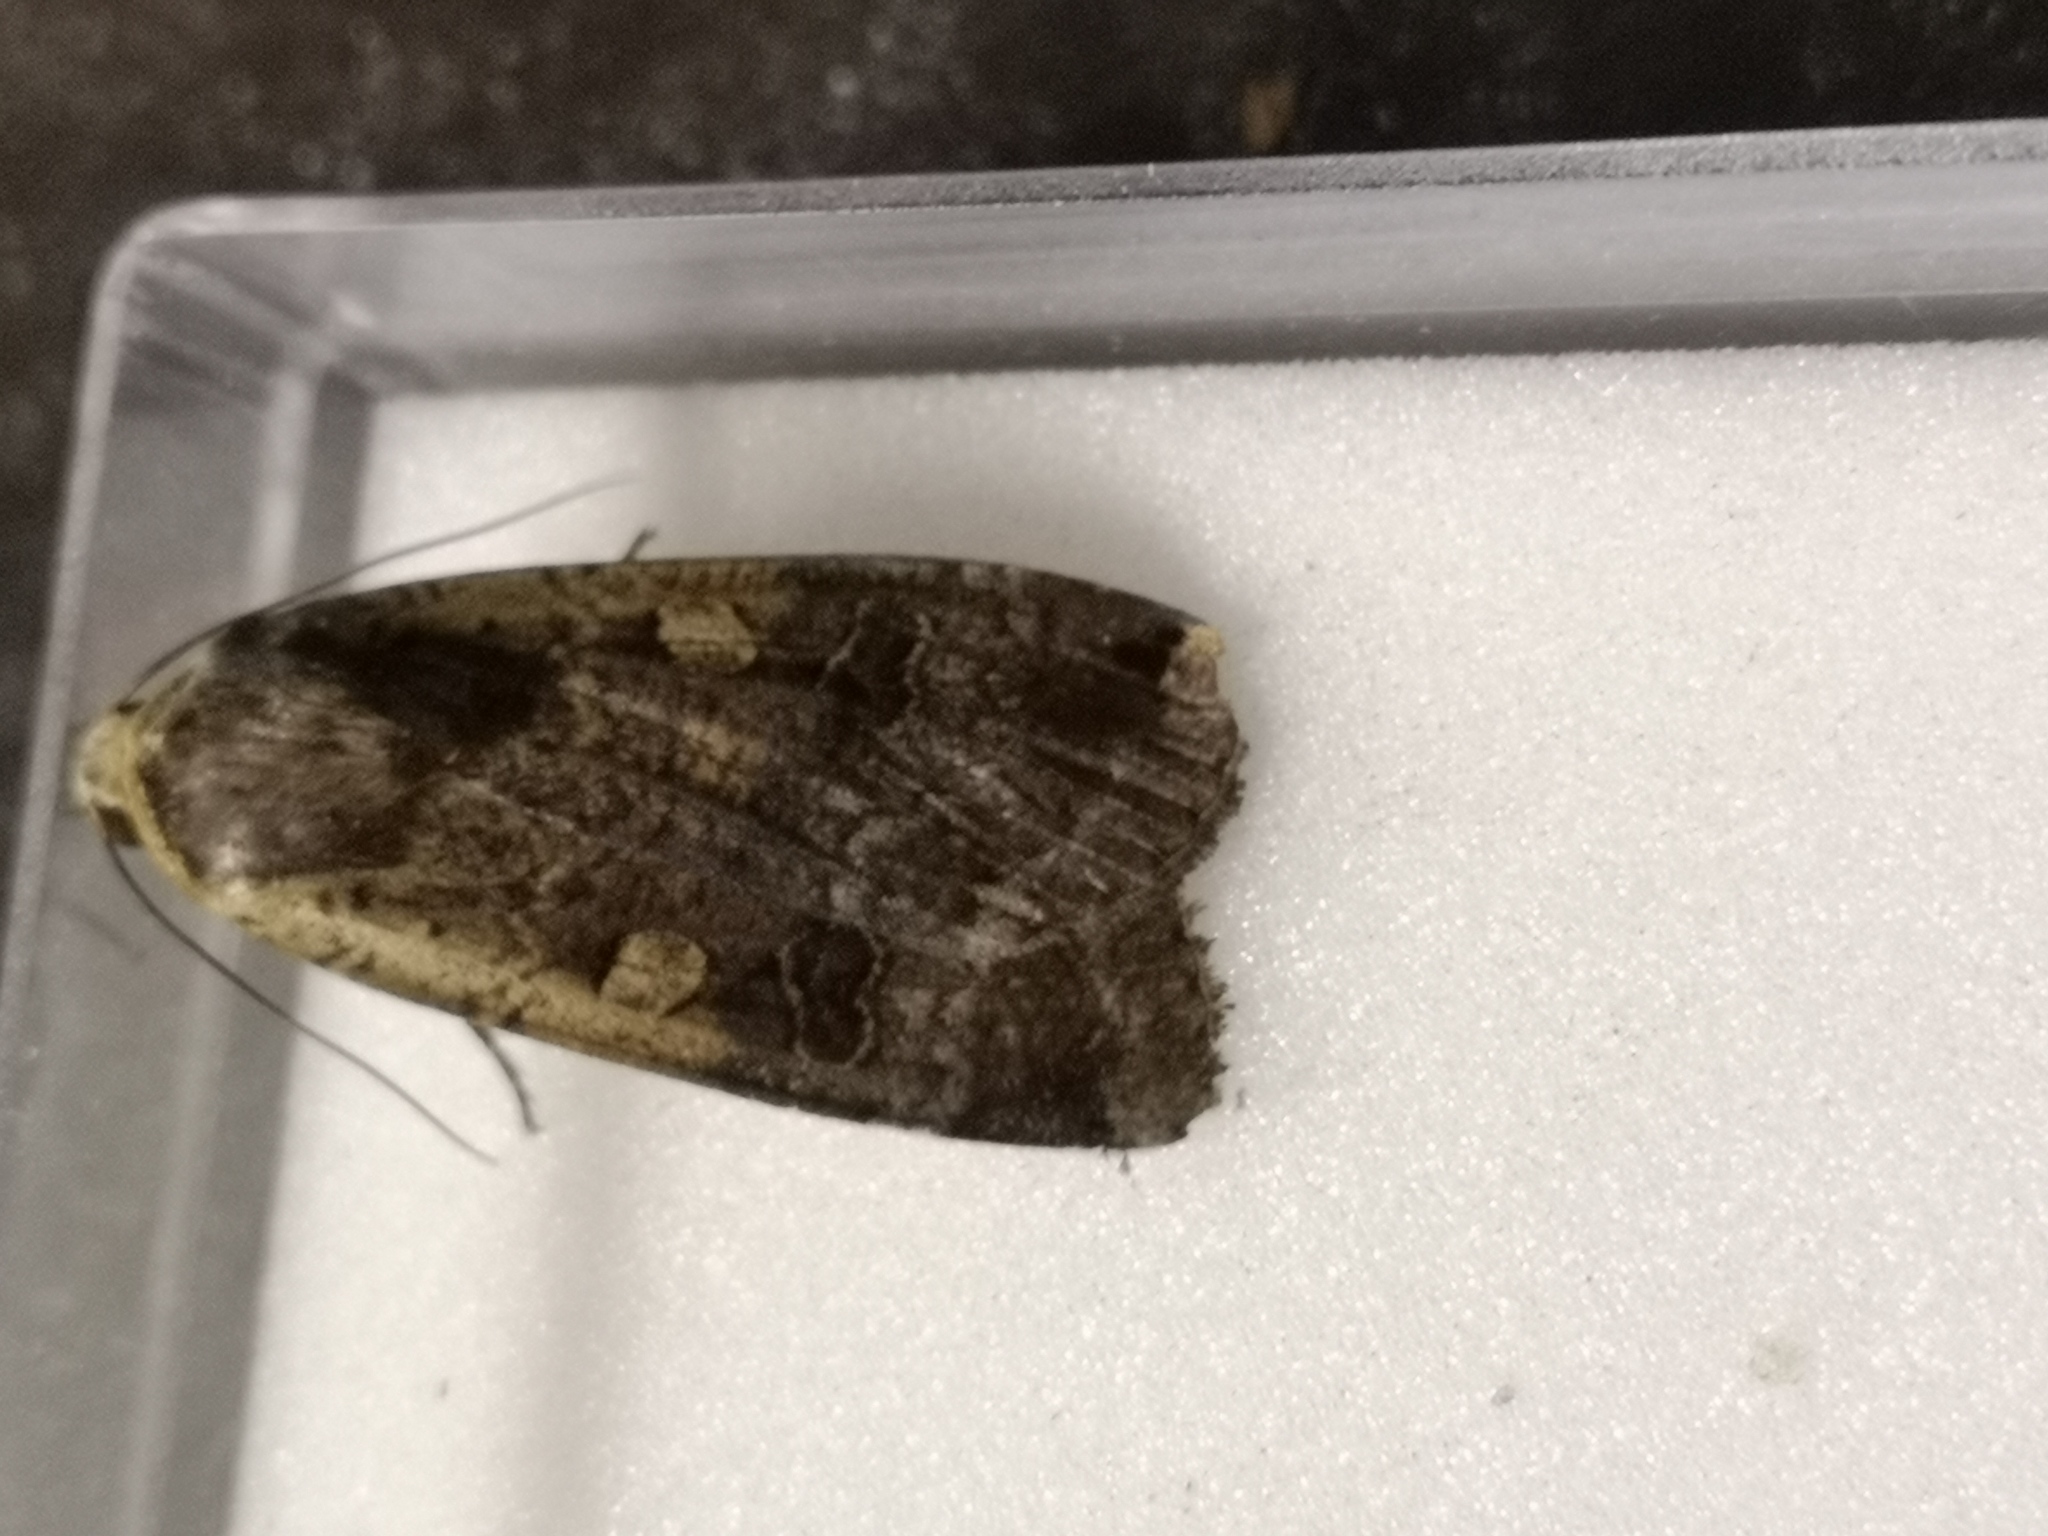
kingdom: Animalia
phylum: Arthropoda
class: Insecta
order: Lepidoptera
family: Noctuidae
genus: Noctua
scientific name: Noctua pronuba
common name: Large yellow underwing
